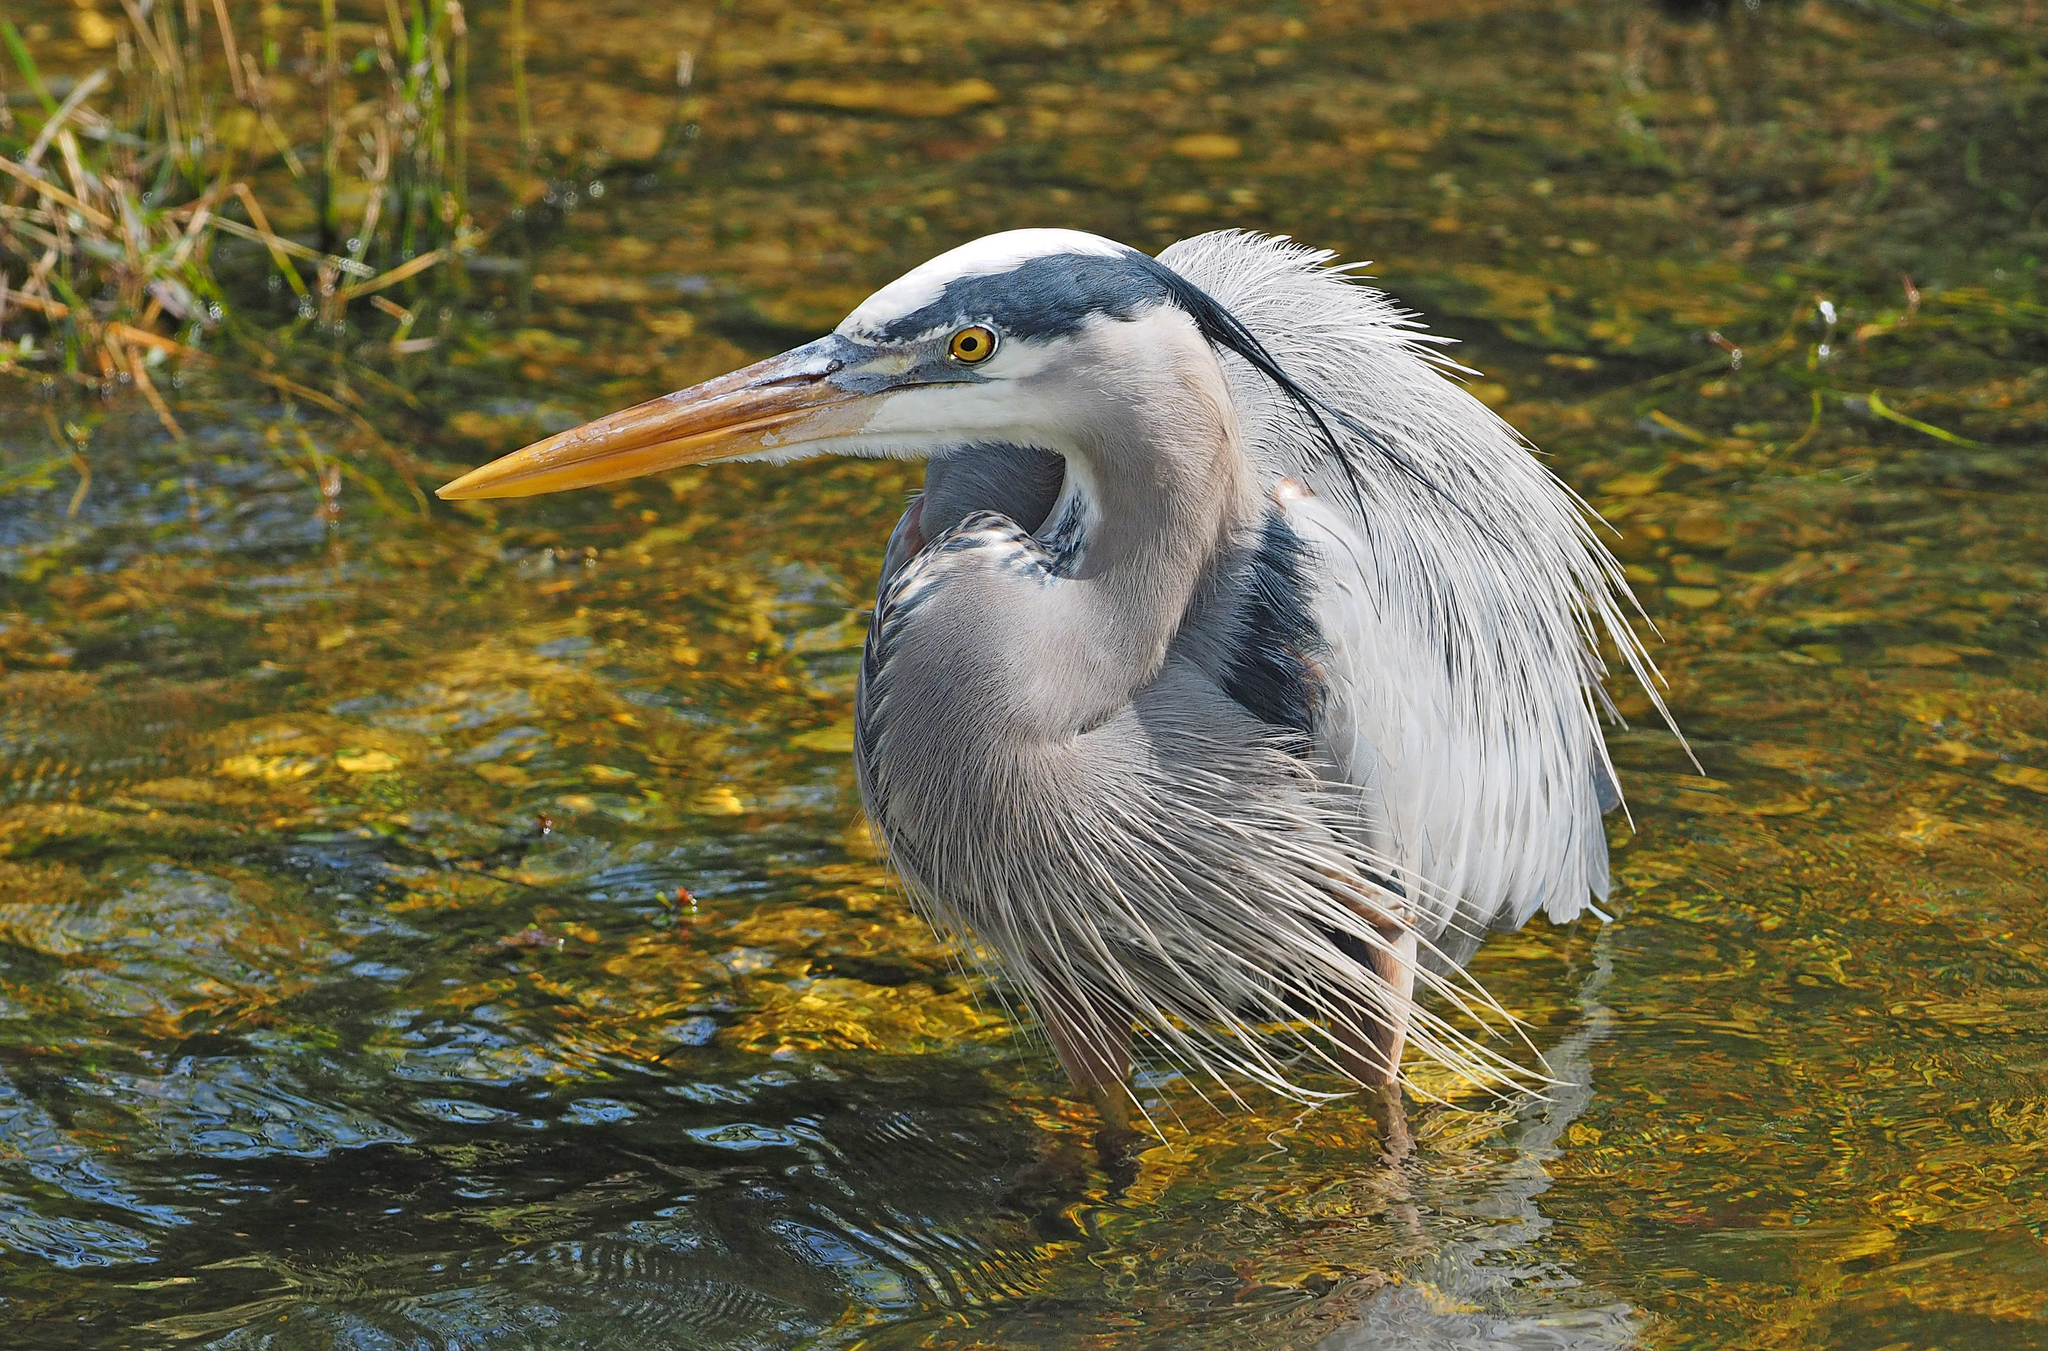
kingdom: Animalia
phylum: Chordata
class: Aves
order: Pelecaniformes
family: Ardeidae
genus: Ardea
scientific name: Ardea herodias
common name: Great blue heron
